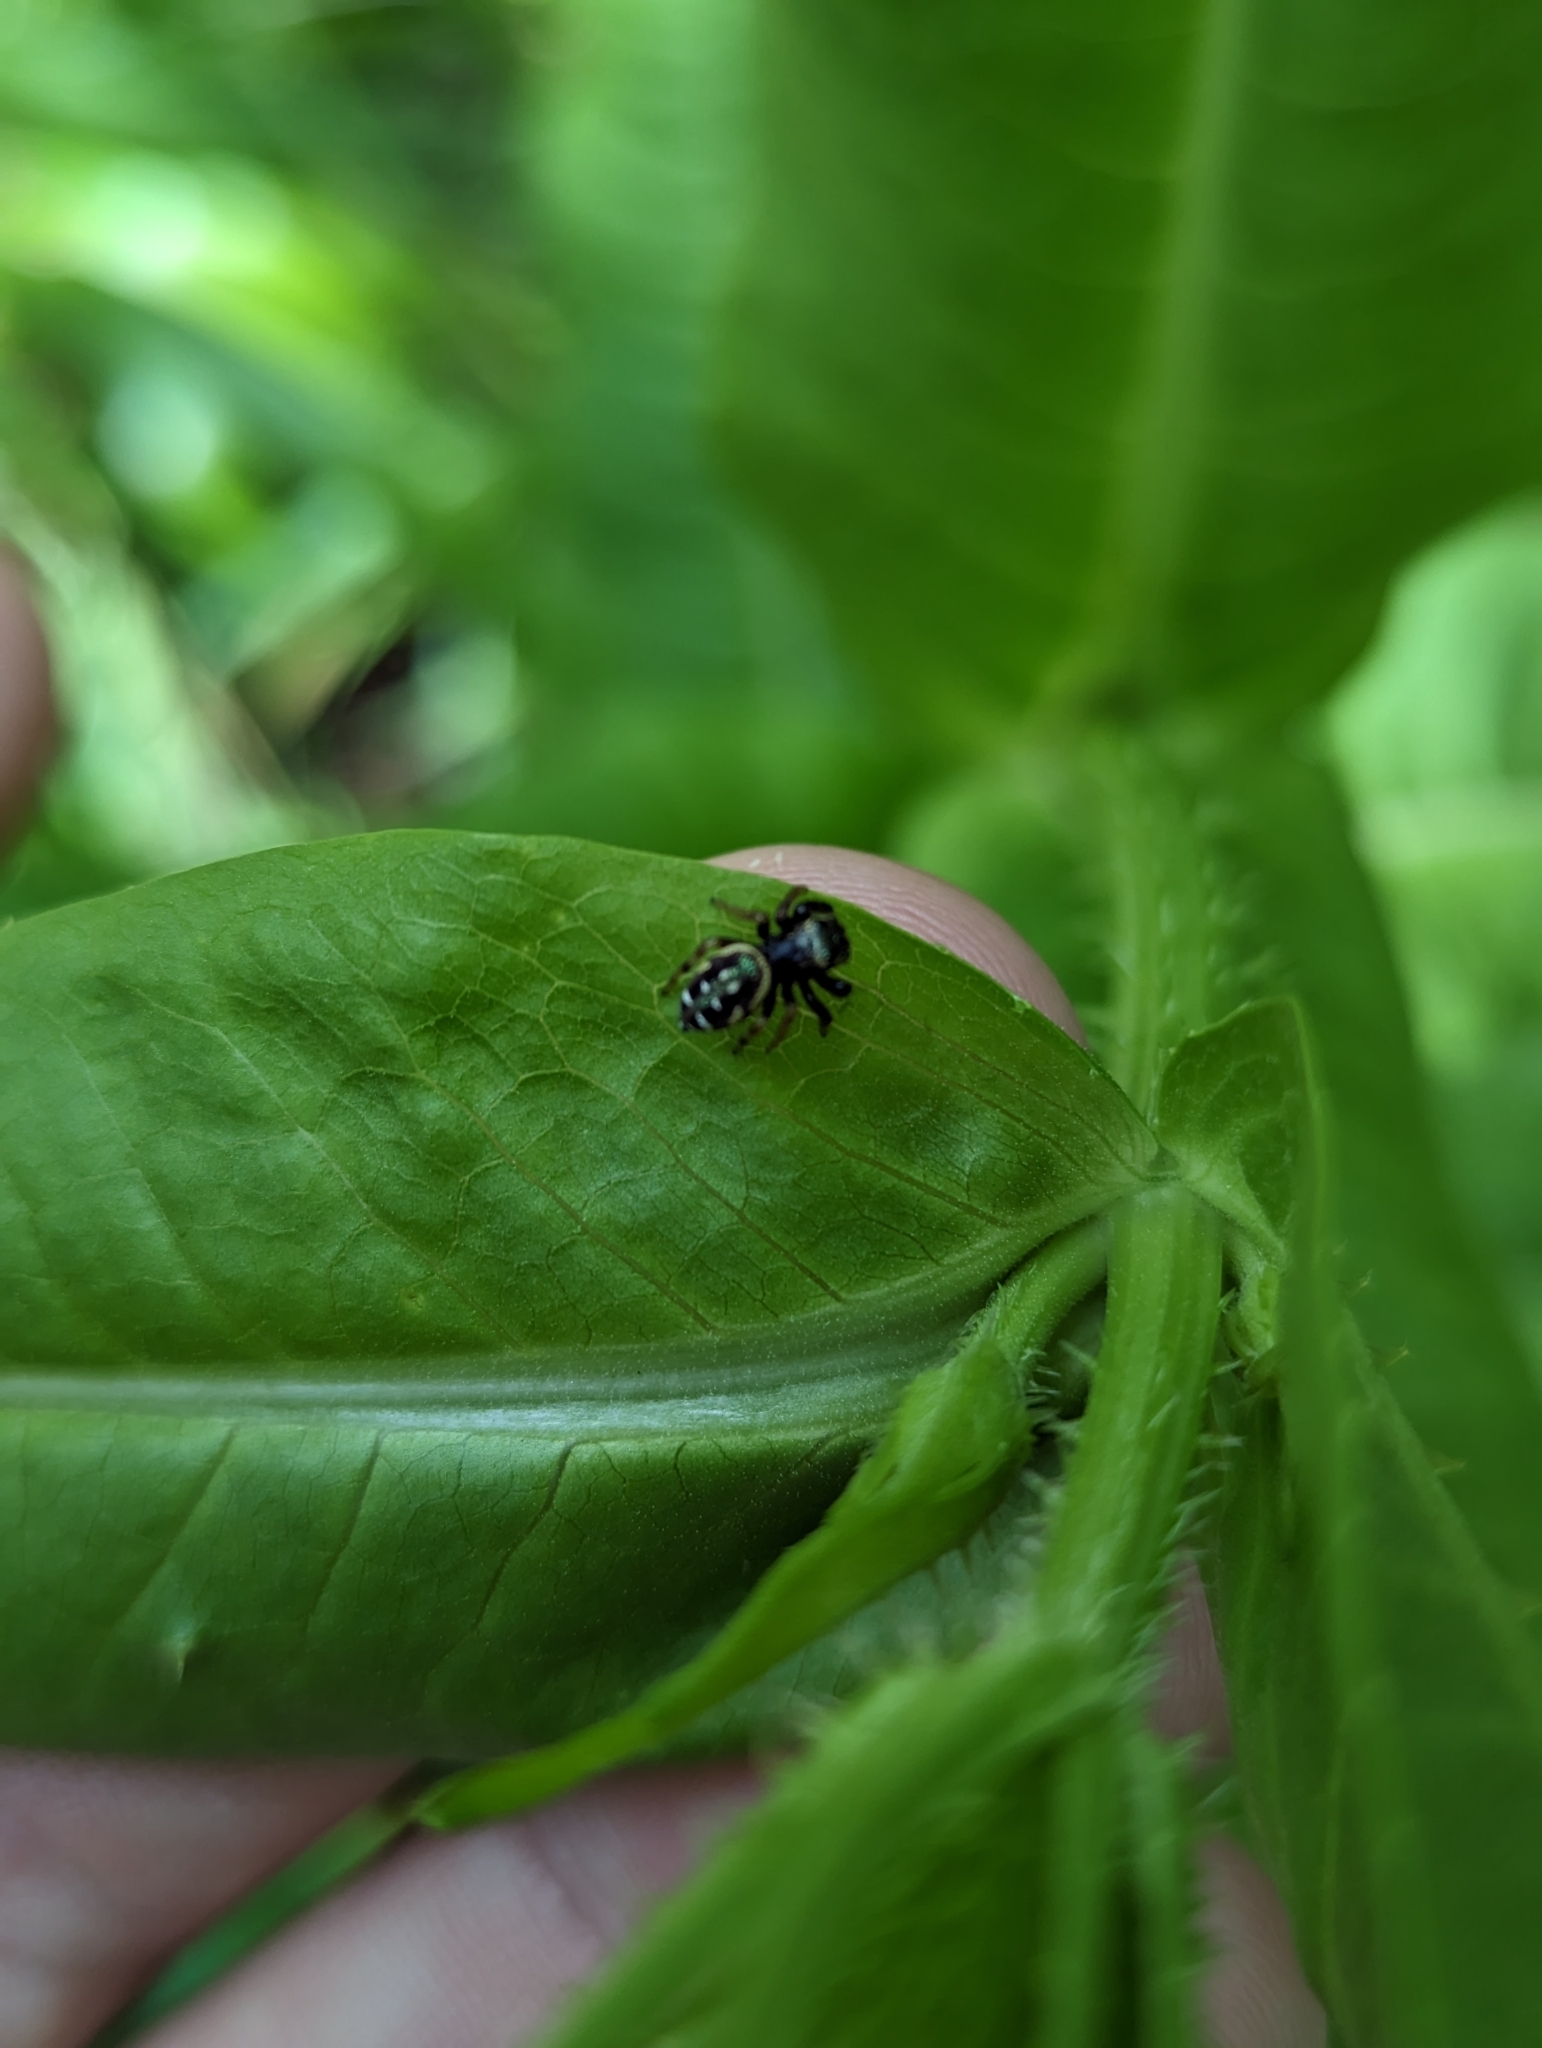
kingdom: Animalia
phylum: Arthropoda
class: Arachnida
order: Araneae
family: Salticidae
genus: Paraphidippus
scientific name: Paraphidippus aurantius
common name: Jumping spiders
